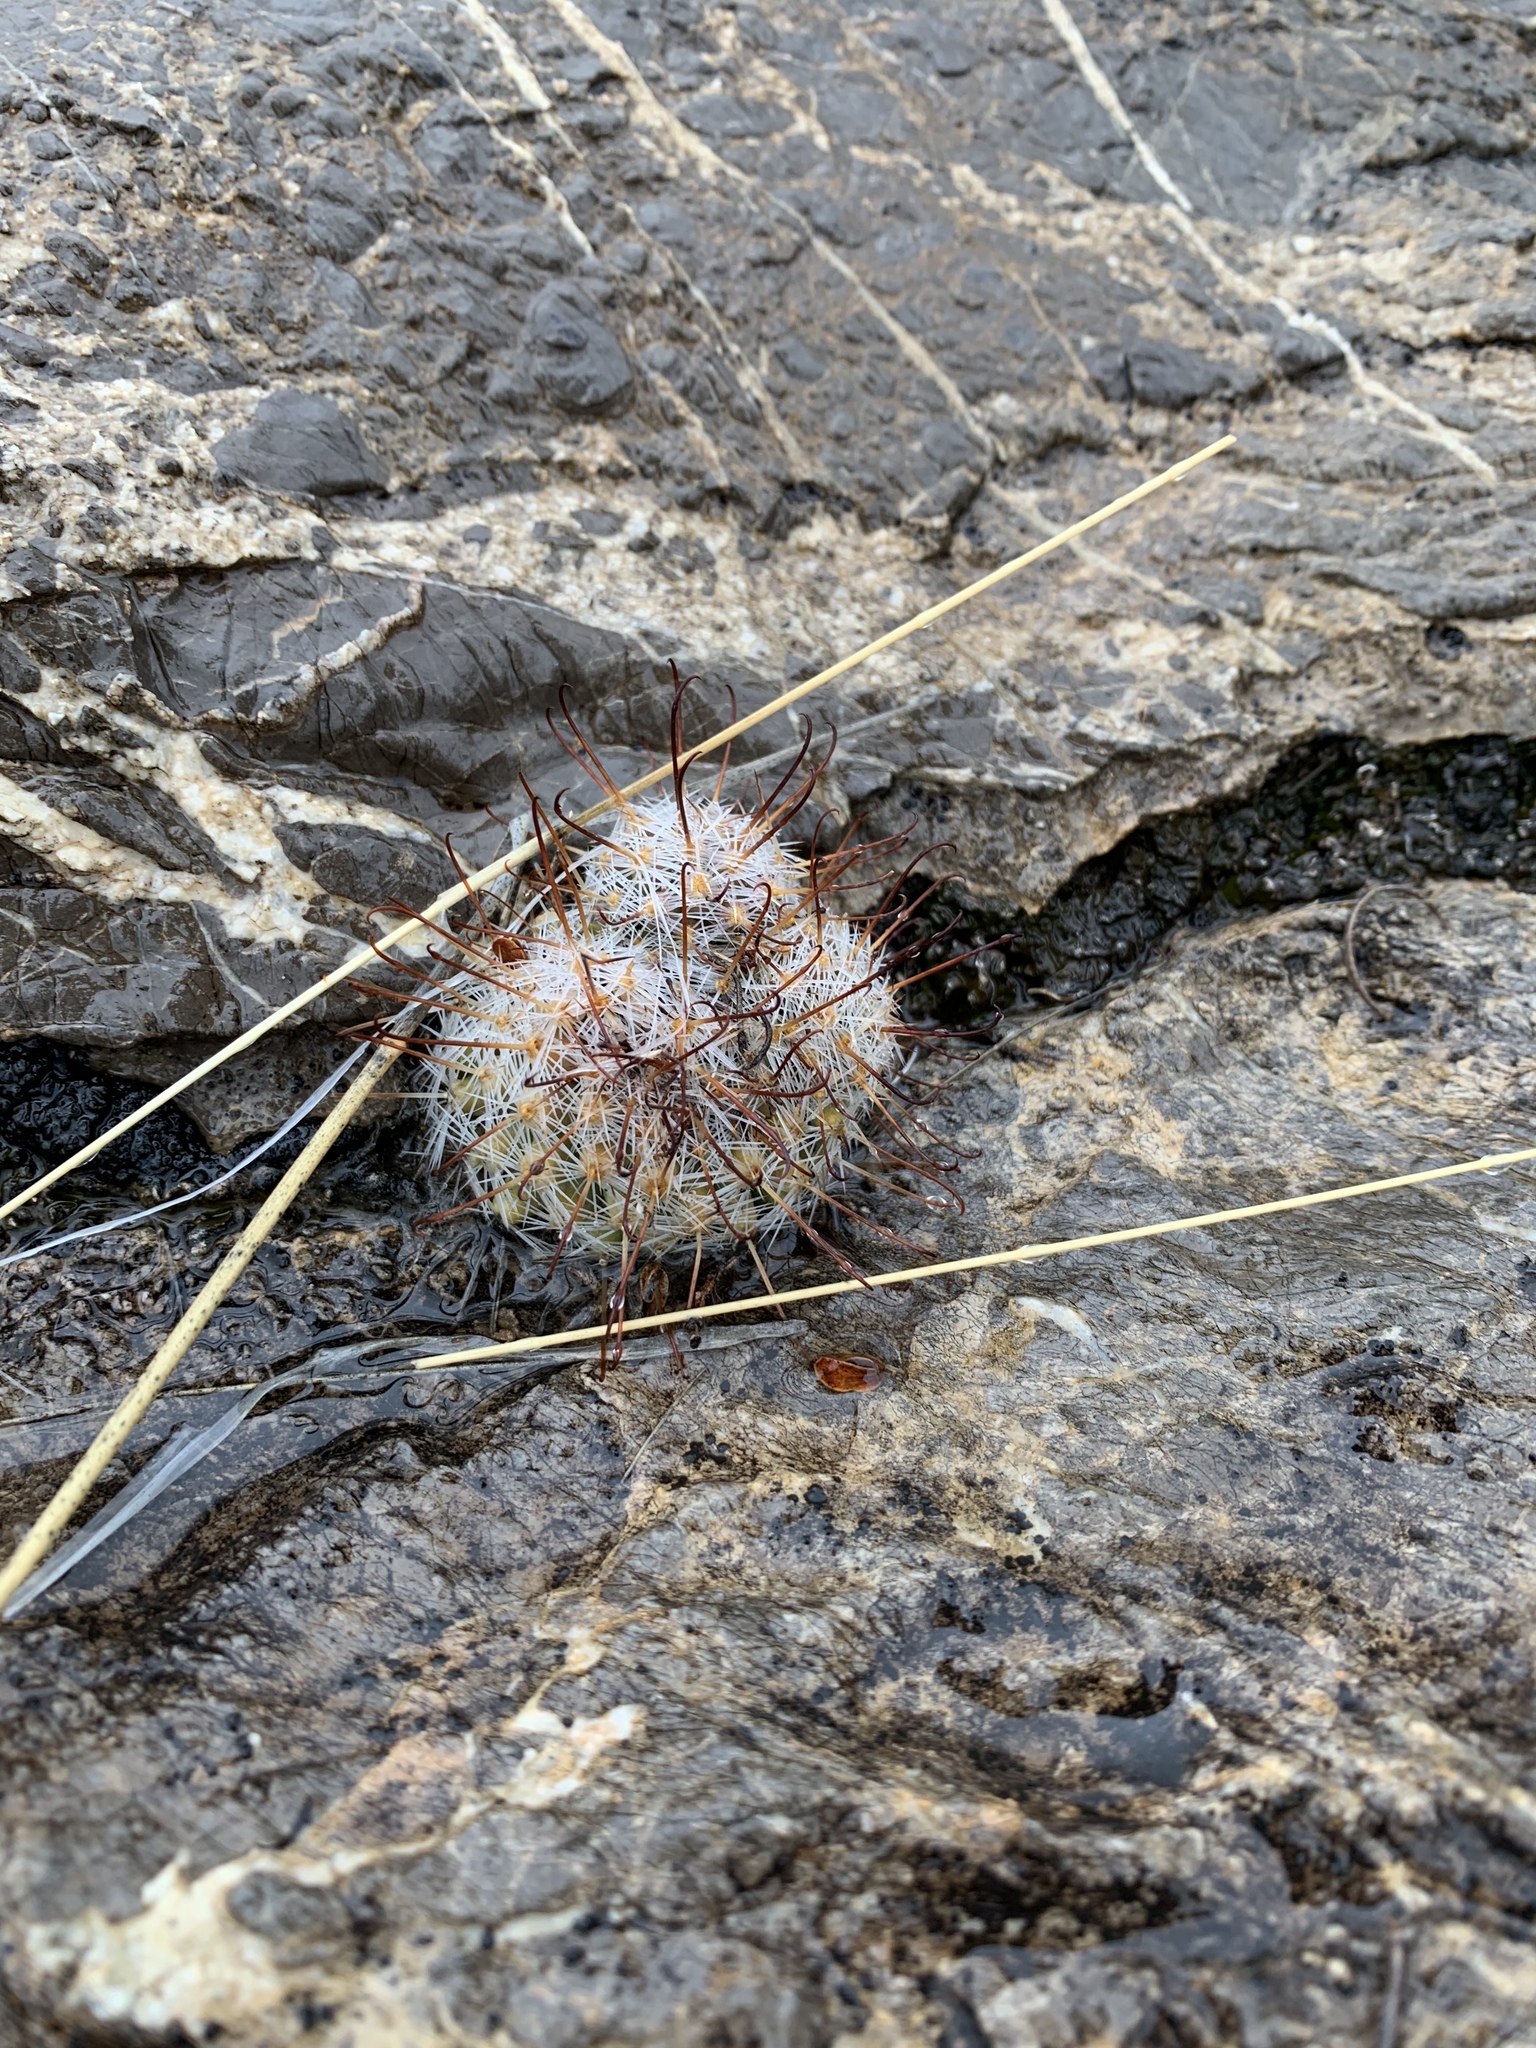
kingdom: Plantae
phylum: Tracheophyta
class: Magnoliopsida
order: Caryophyllales
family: Cactaceae
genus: Cochemiea
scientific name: Cochemiea grahamii
